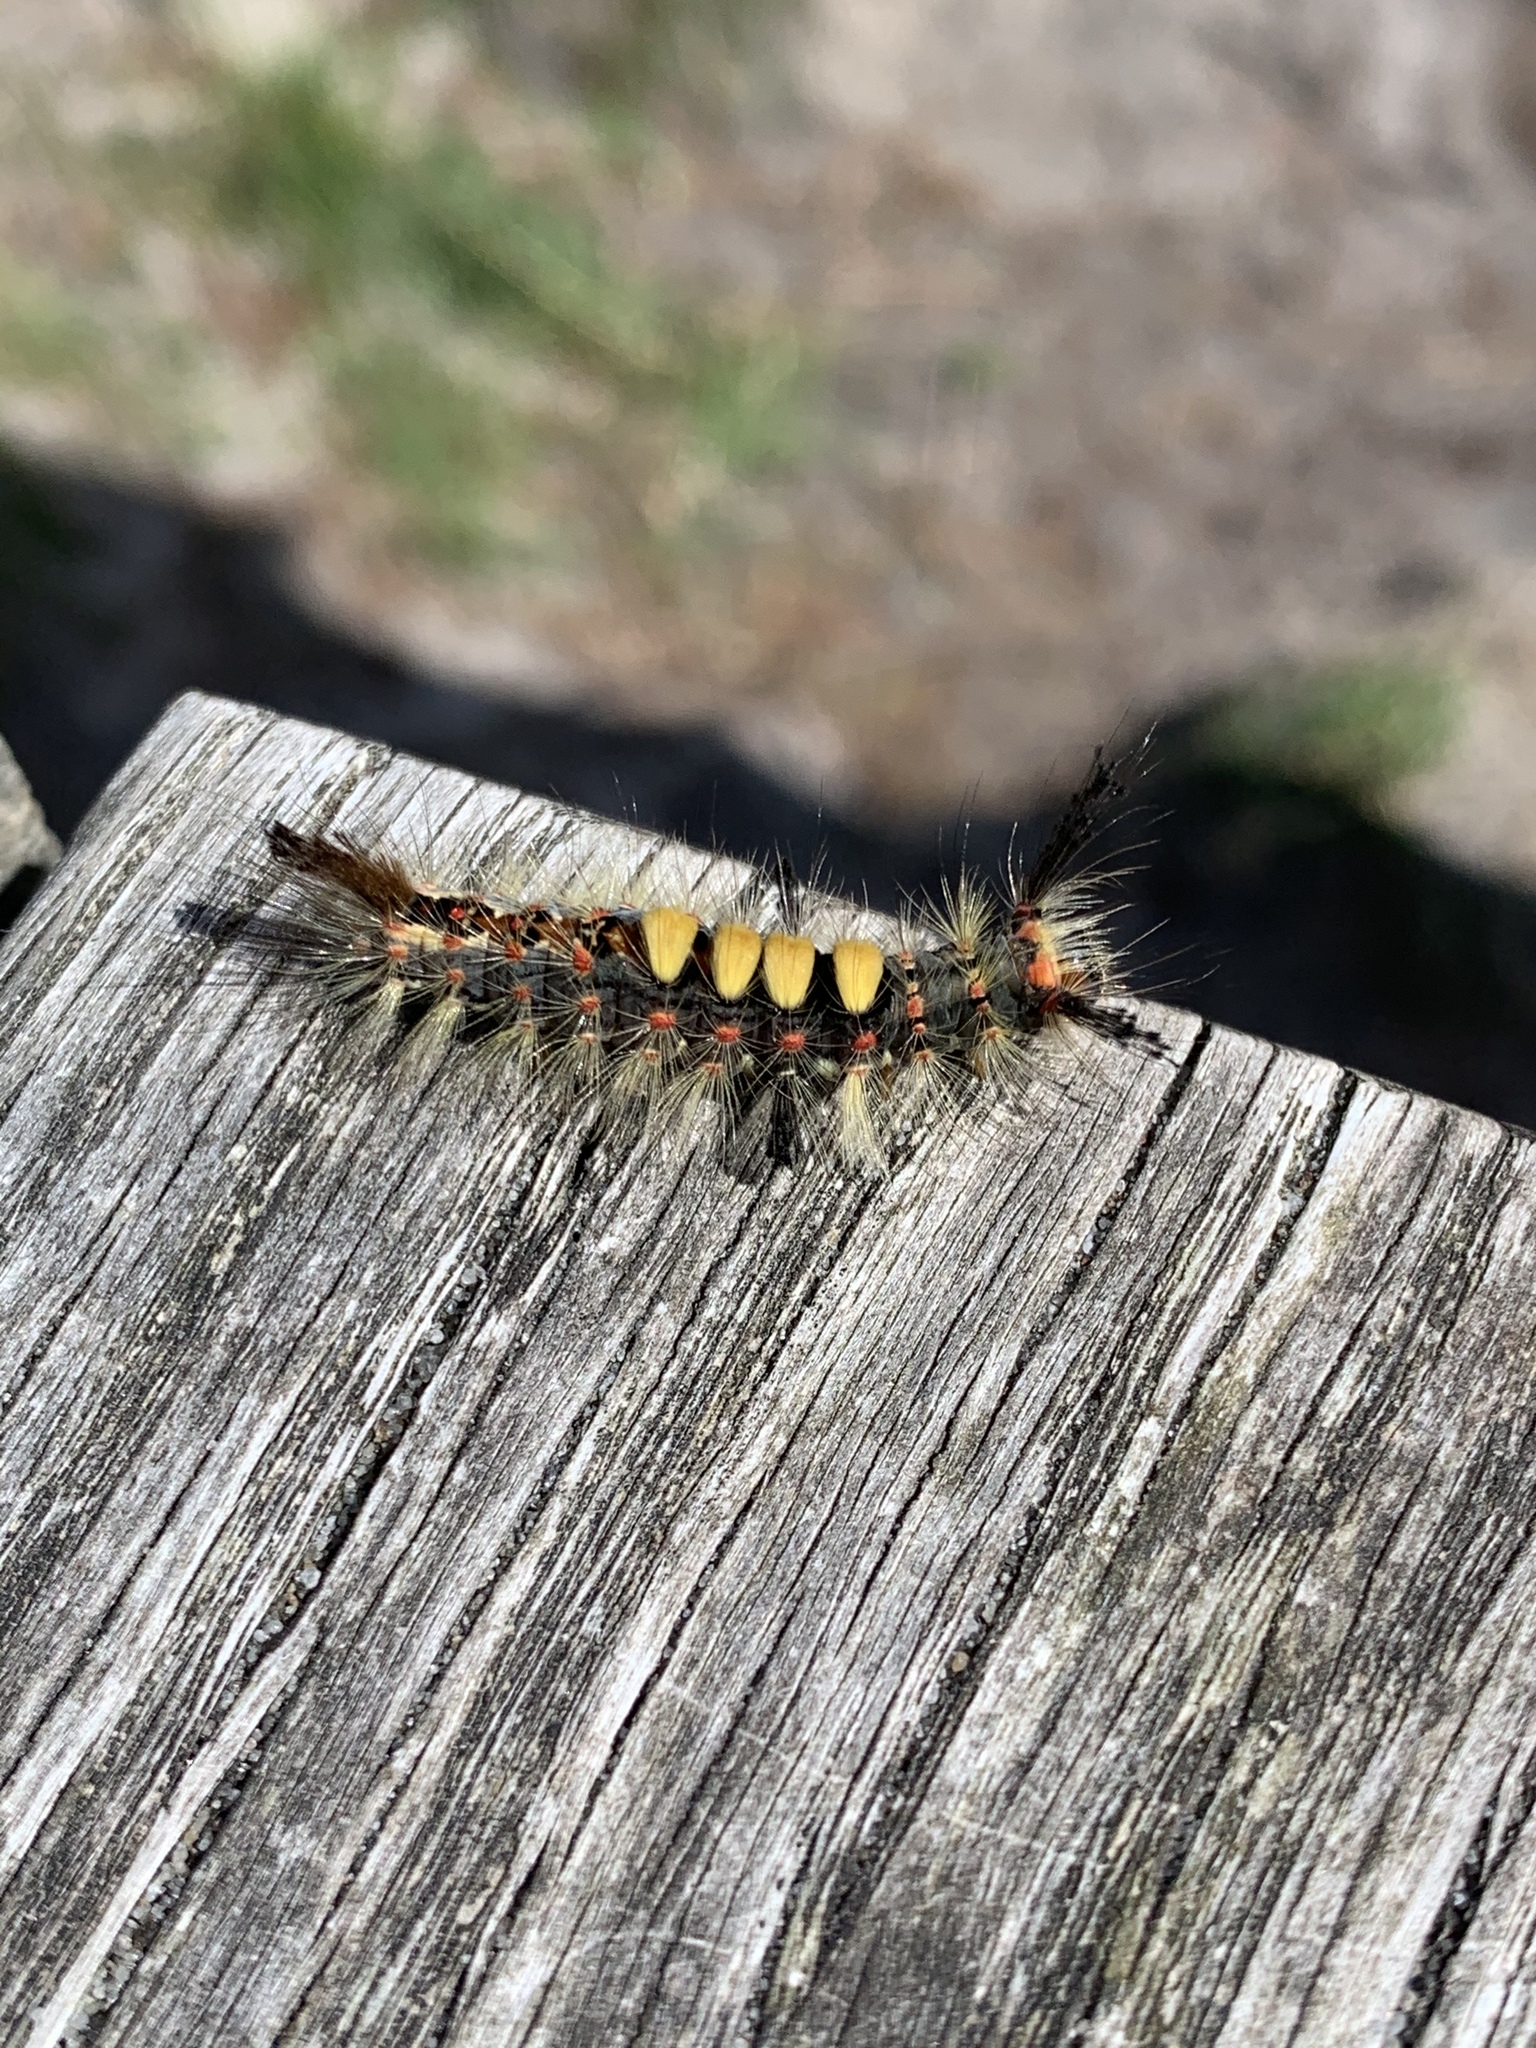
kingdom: Animalia
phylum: Arthropoda
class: Insecta
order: Lepidoptera
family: Erebidae
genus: Orgyia
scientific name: Orgyia antiqua
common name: Vapourer
